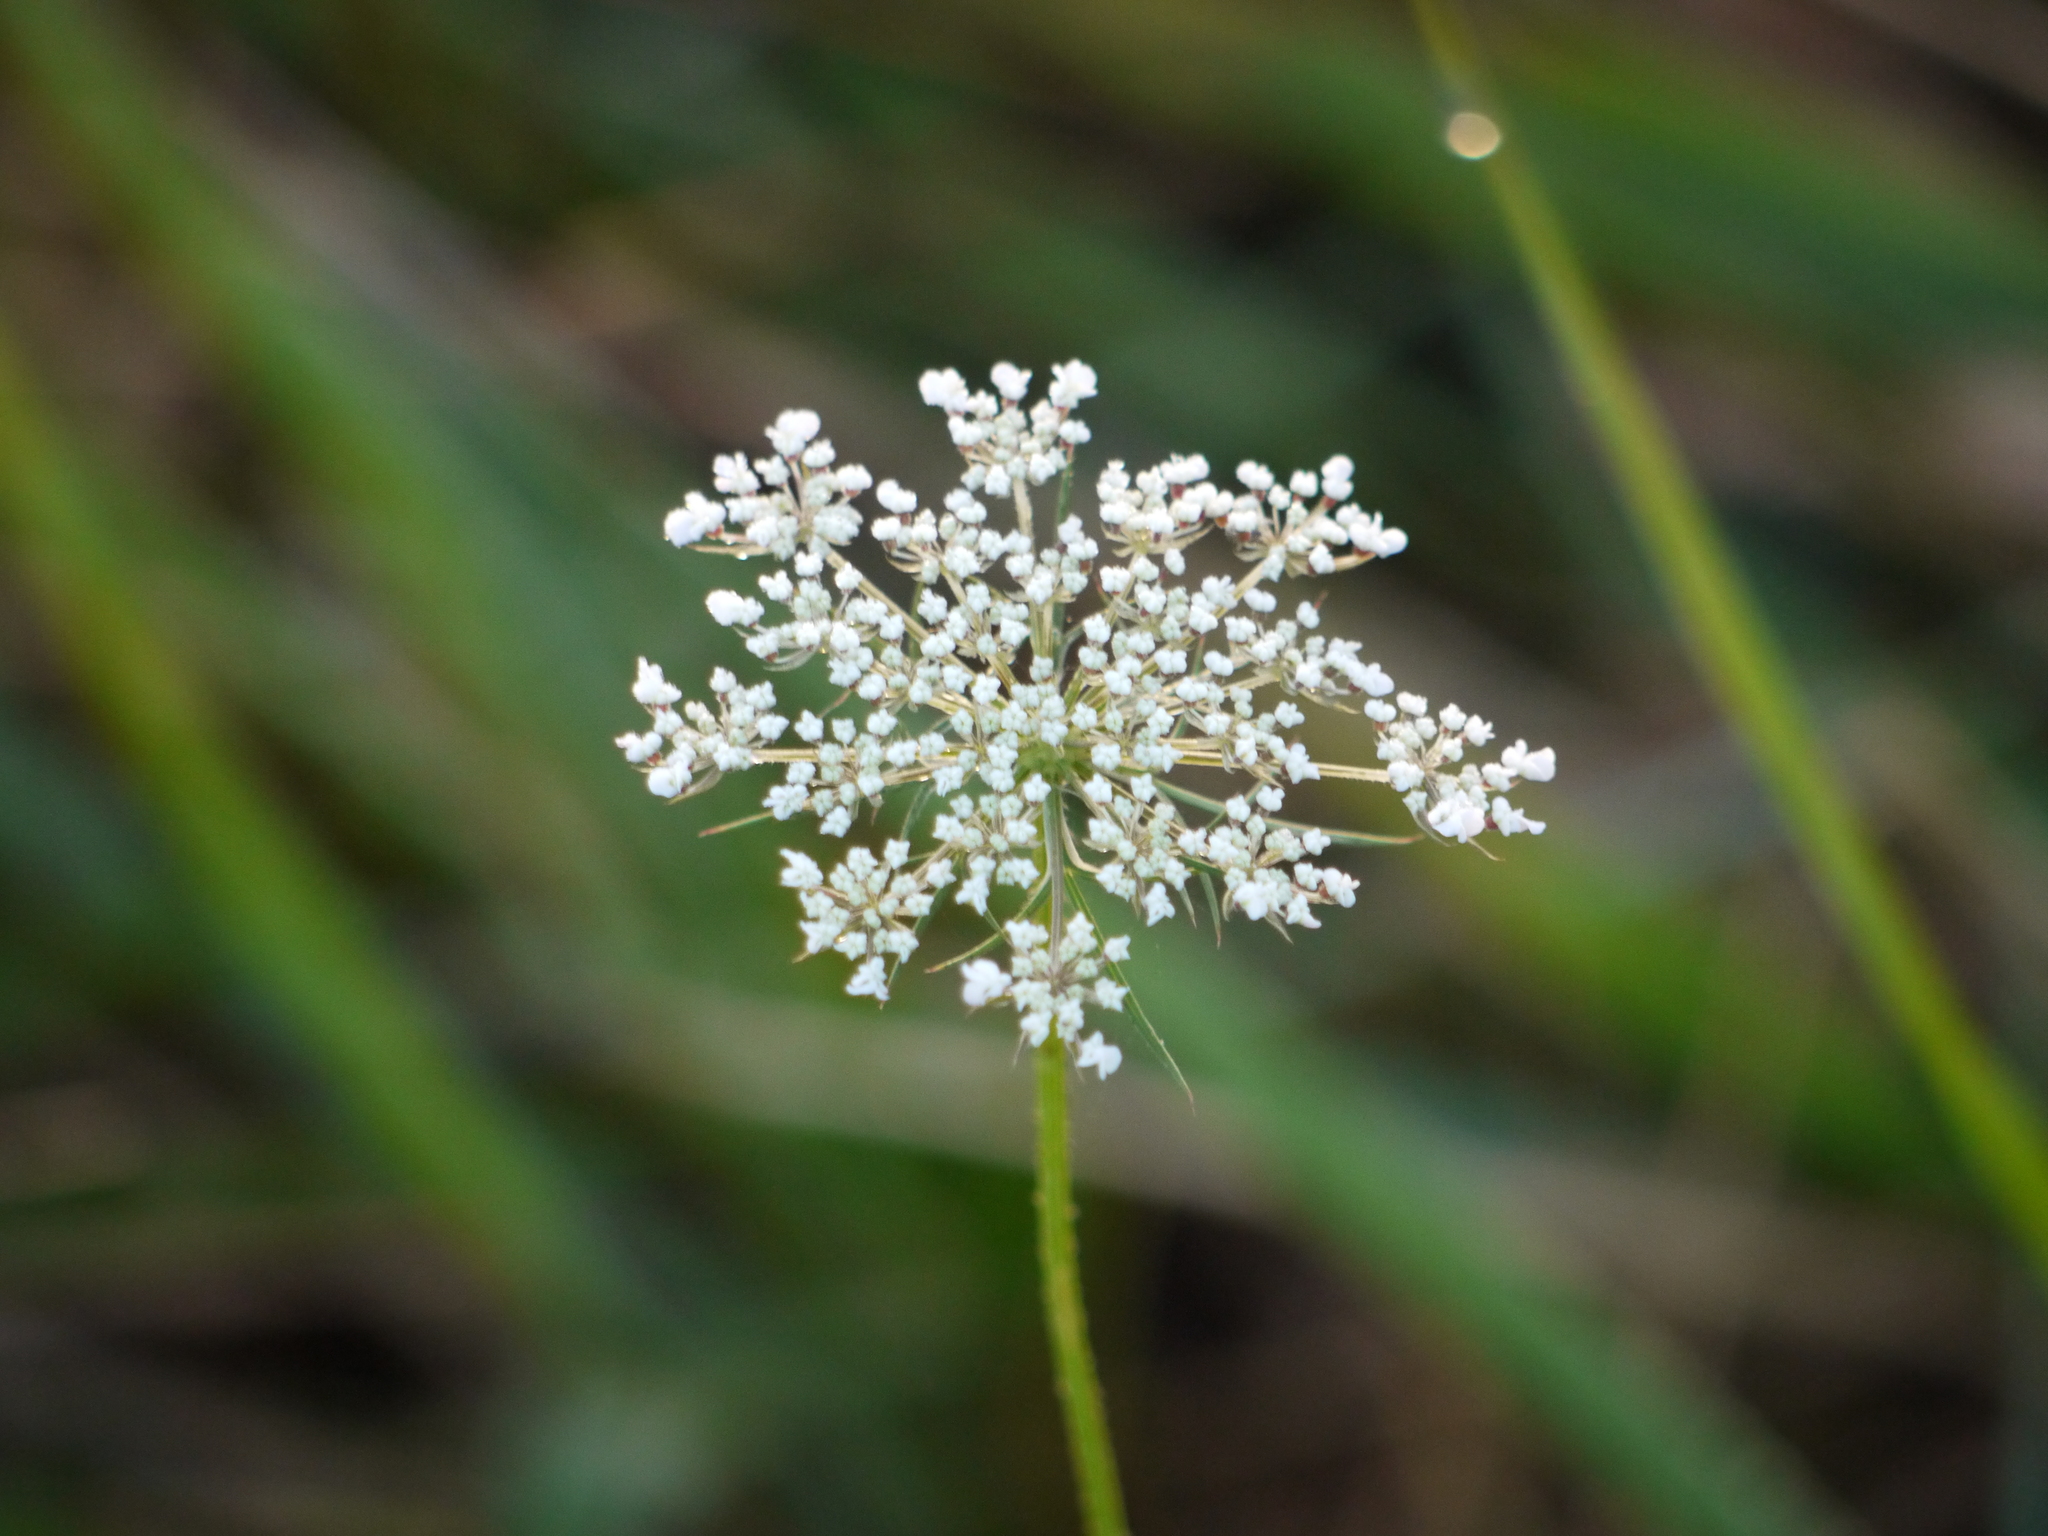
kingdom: Plantae
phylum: Tracheophyta
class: Magnoliopsida
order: Apiales
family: Apiaceae
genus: Daucus
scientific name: Daucus carota
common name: Wild carrot
